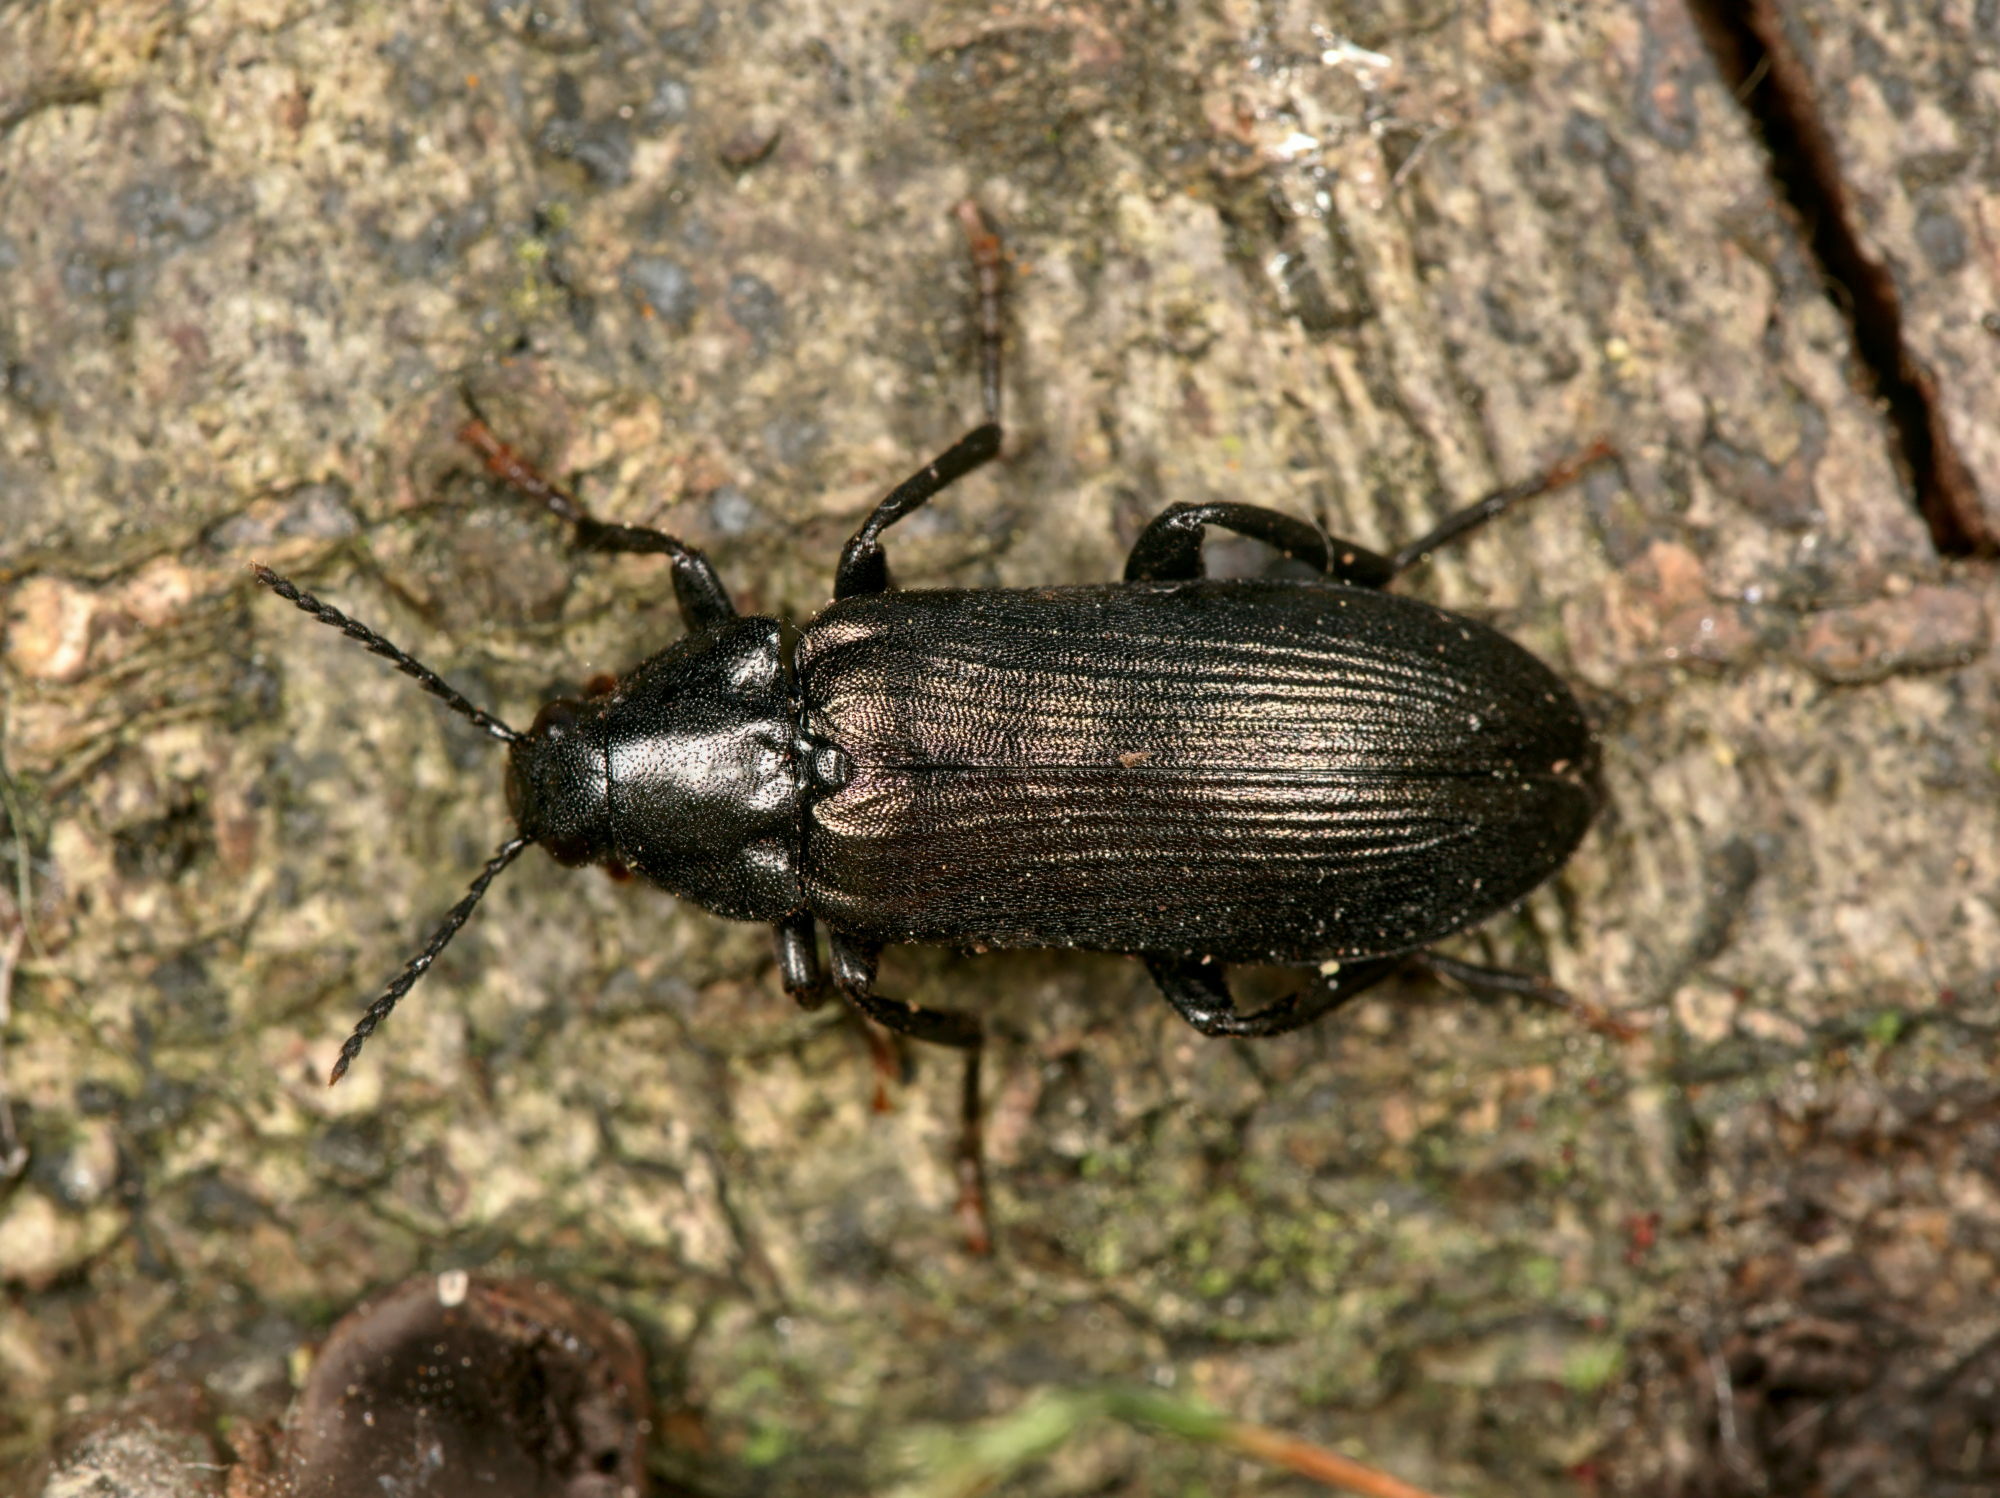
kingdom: Animalia
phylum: Arthropoda
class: Insecta
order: Coleoptera
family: Melandryidae
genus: Melandrya
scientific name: Melandrya caraboides
